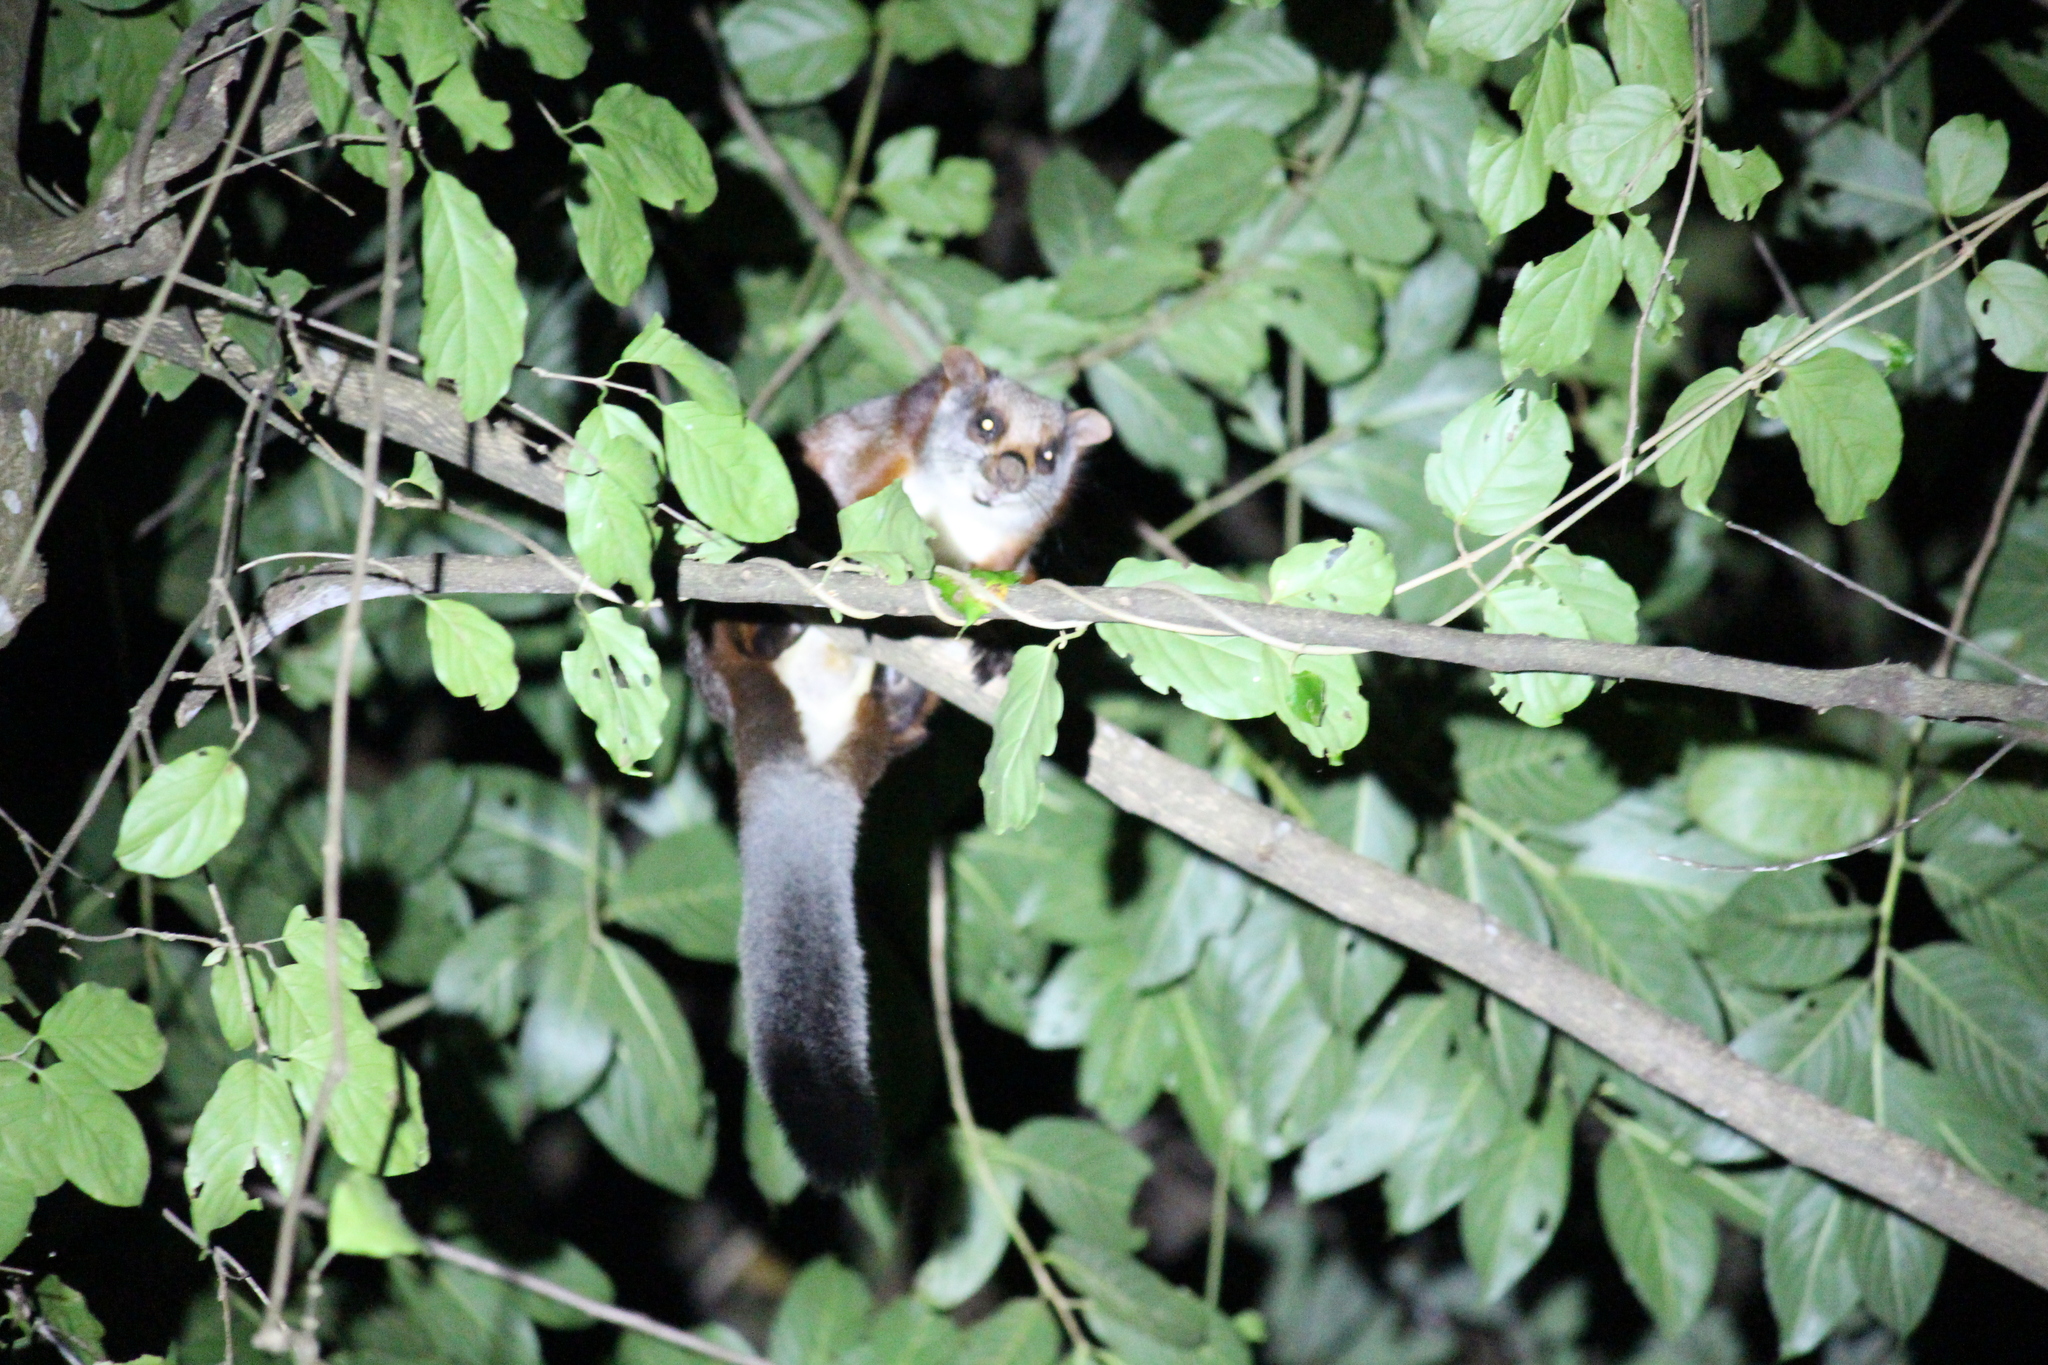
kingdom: Animalia
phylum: Chordata
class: Mammalia
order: Rodentia
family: Sciuridae
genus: Petaurista
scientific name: Petaurista petaurista
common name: Red giant flying squirrel
